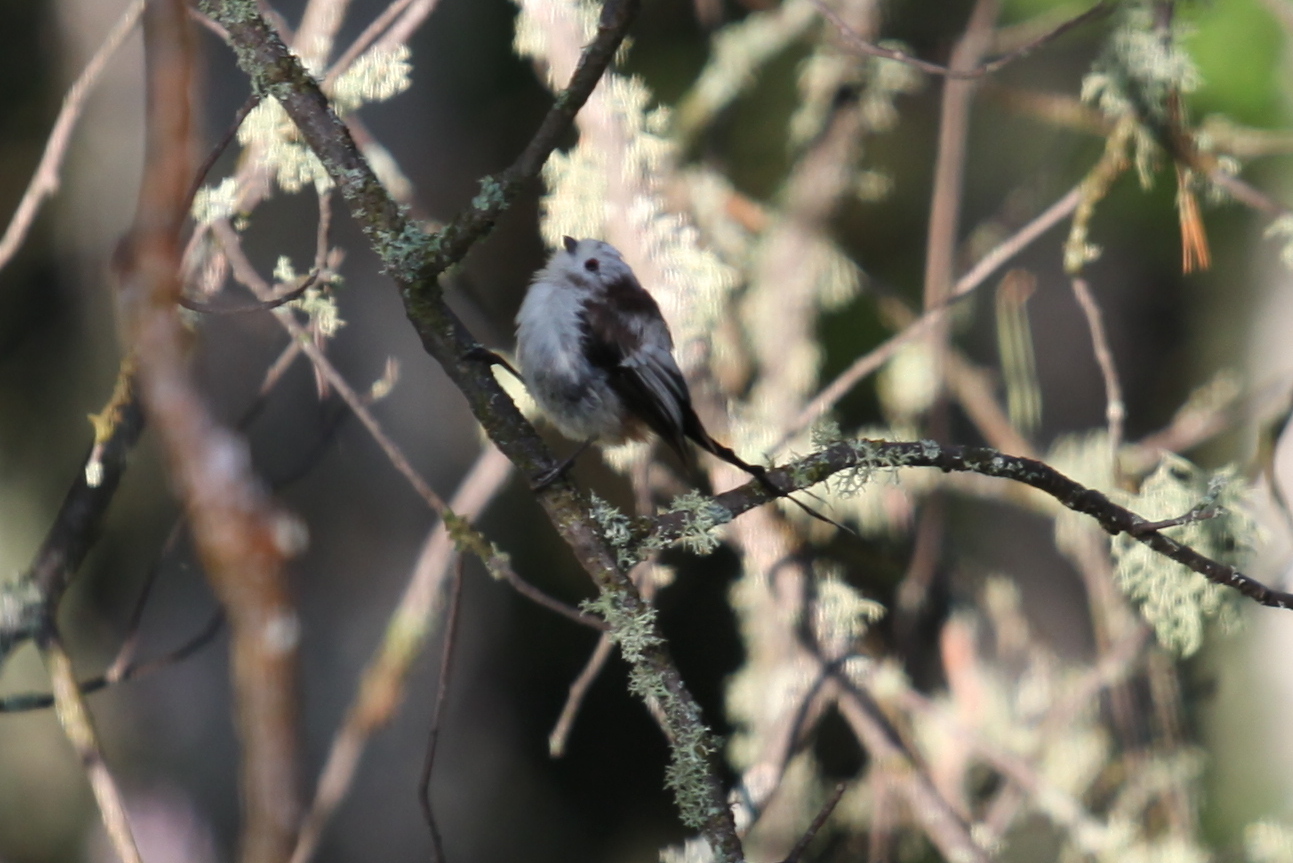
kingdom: Animalia
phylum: Chordata
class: Aves
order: Passeriformes
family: Aegithalidae
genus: Aegithalos
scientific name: Aegithalos caudatus
